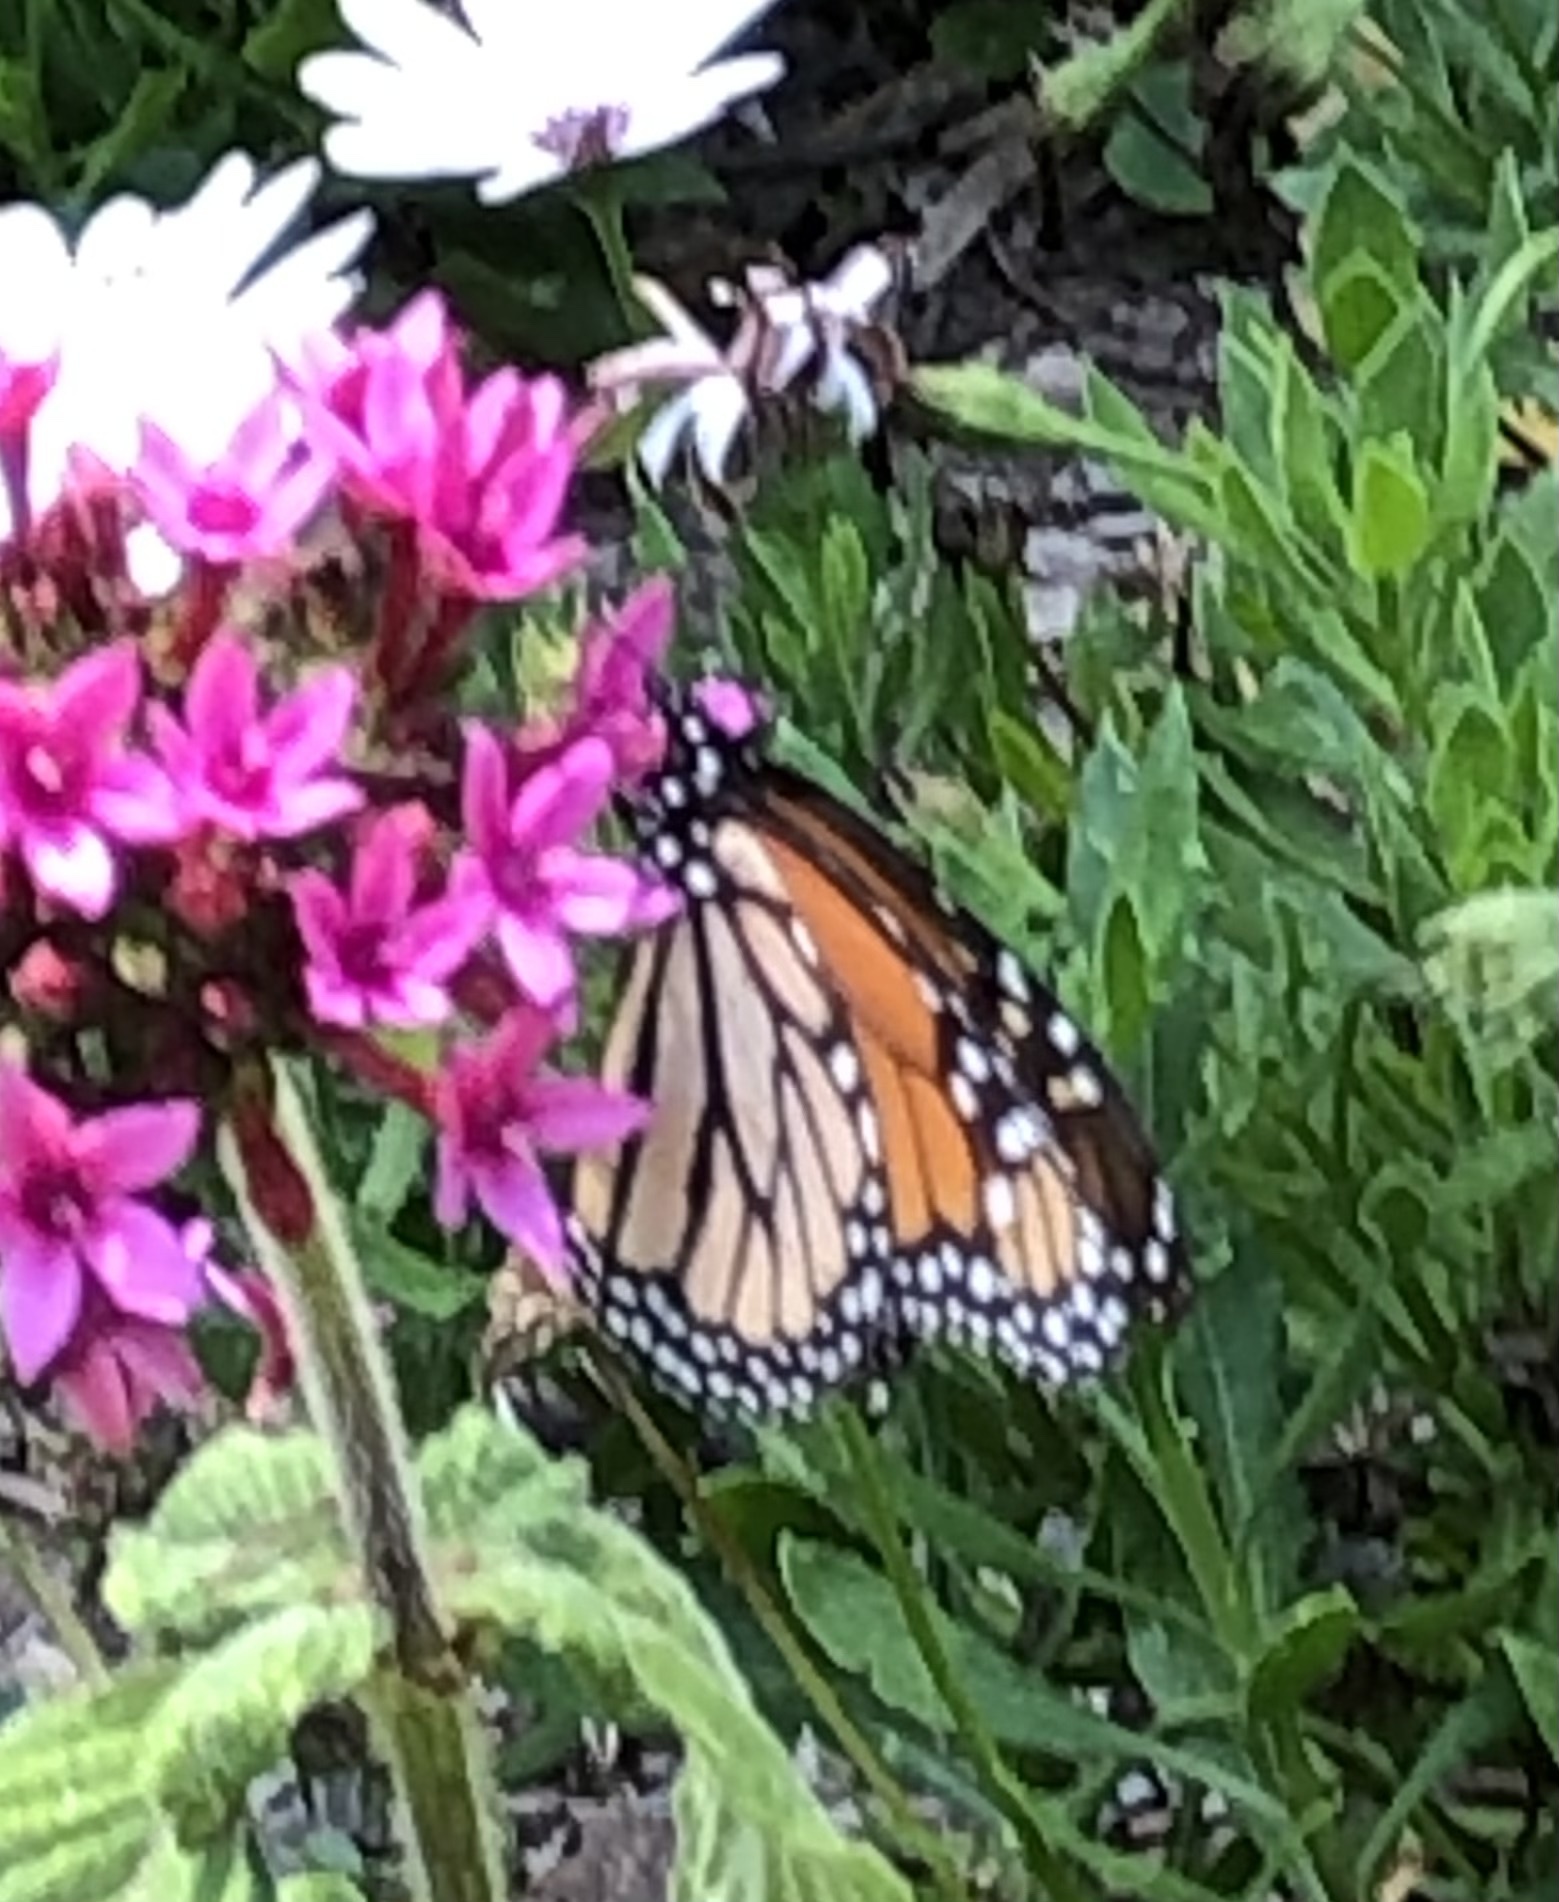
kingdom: Animalia
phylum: Arthropoda
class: Insecta
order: Lepidoptera
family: Nymphalidae
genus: Danaus
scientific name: Danaus plexippus
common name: Monarch
